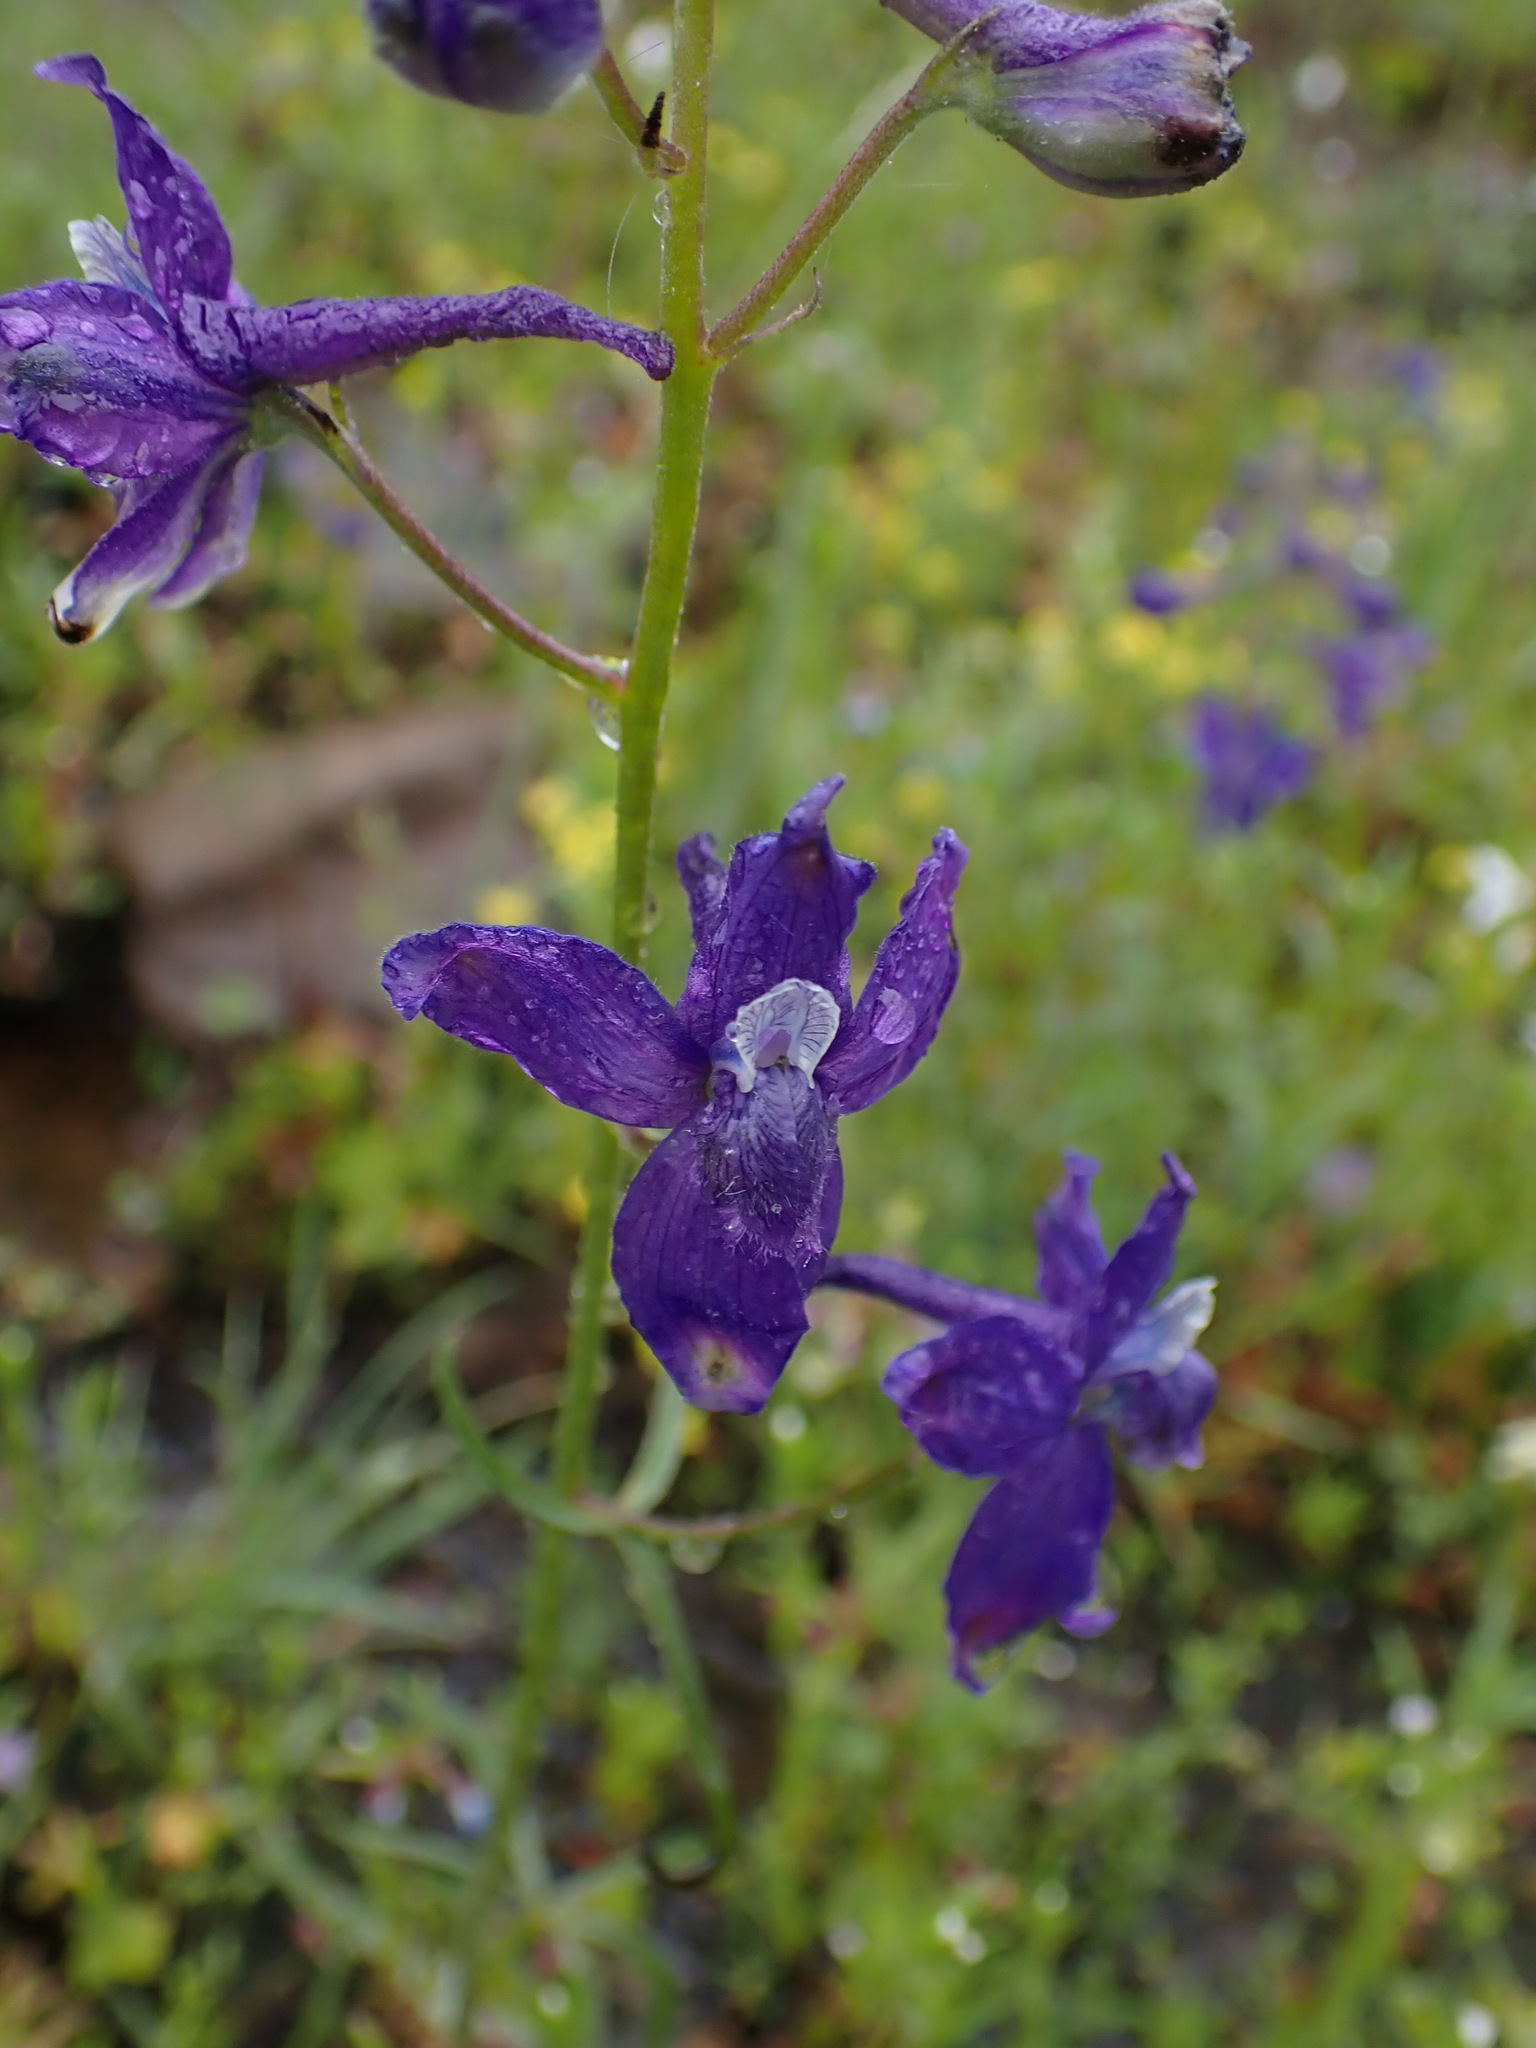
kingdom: Plantae
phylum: Tracheophyta
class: Magnoliopsida
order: Ranunculales
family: Ranunculaceae
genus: Delphinium
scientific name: Delphinium nuttallianum
